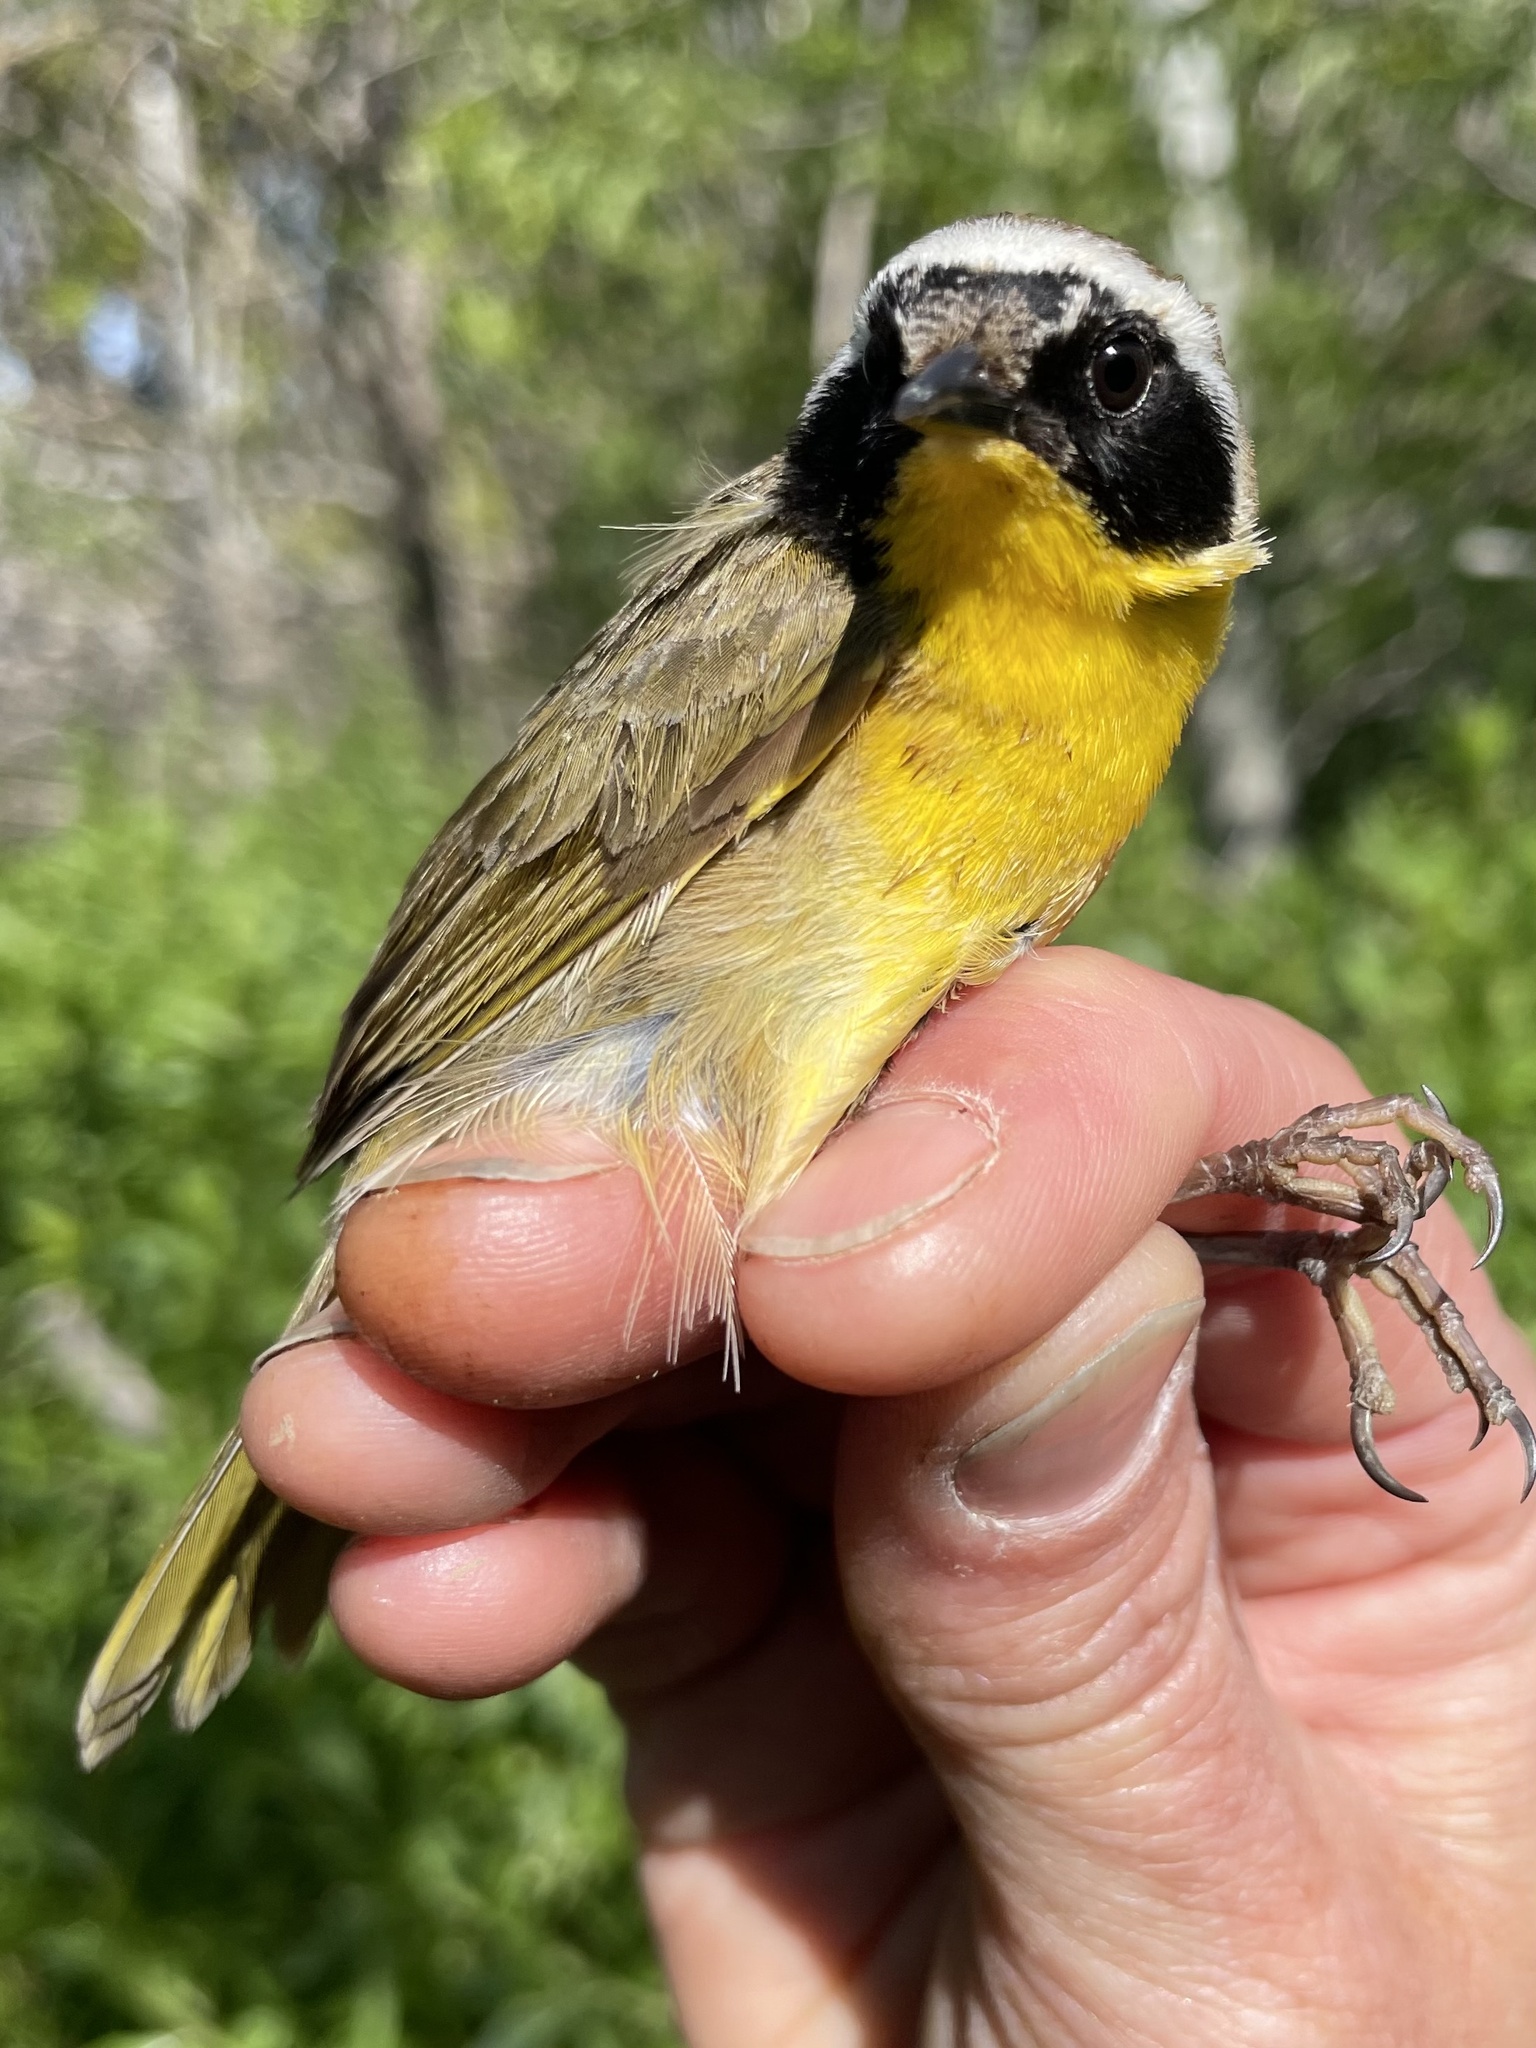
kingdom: Animalia
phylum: Chordata
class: Aves
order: Passeriformes
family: Parulidae
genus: Geothlypis
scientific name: Geothlypis trichas
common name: Common yellowthroat
